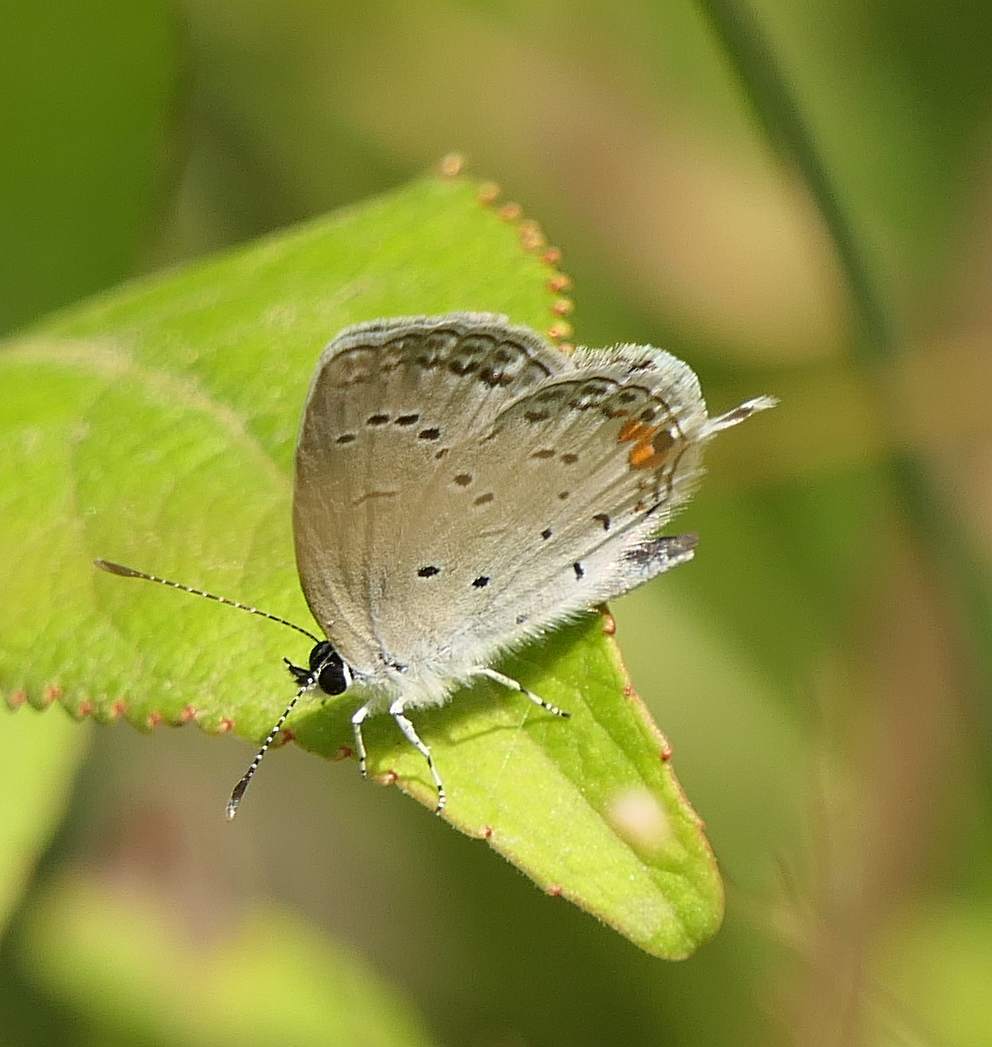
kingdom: Animalia
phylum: Arthropoda
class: Insecta
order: Lepidoptera
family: Lycaenidae
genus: Elkalyce
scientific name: Elkalyce comyntas
